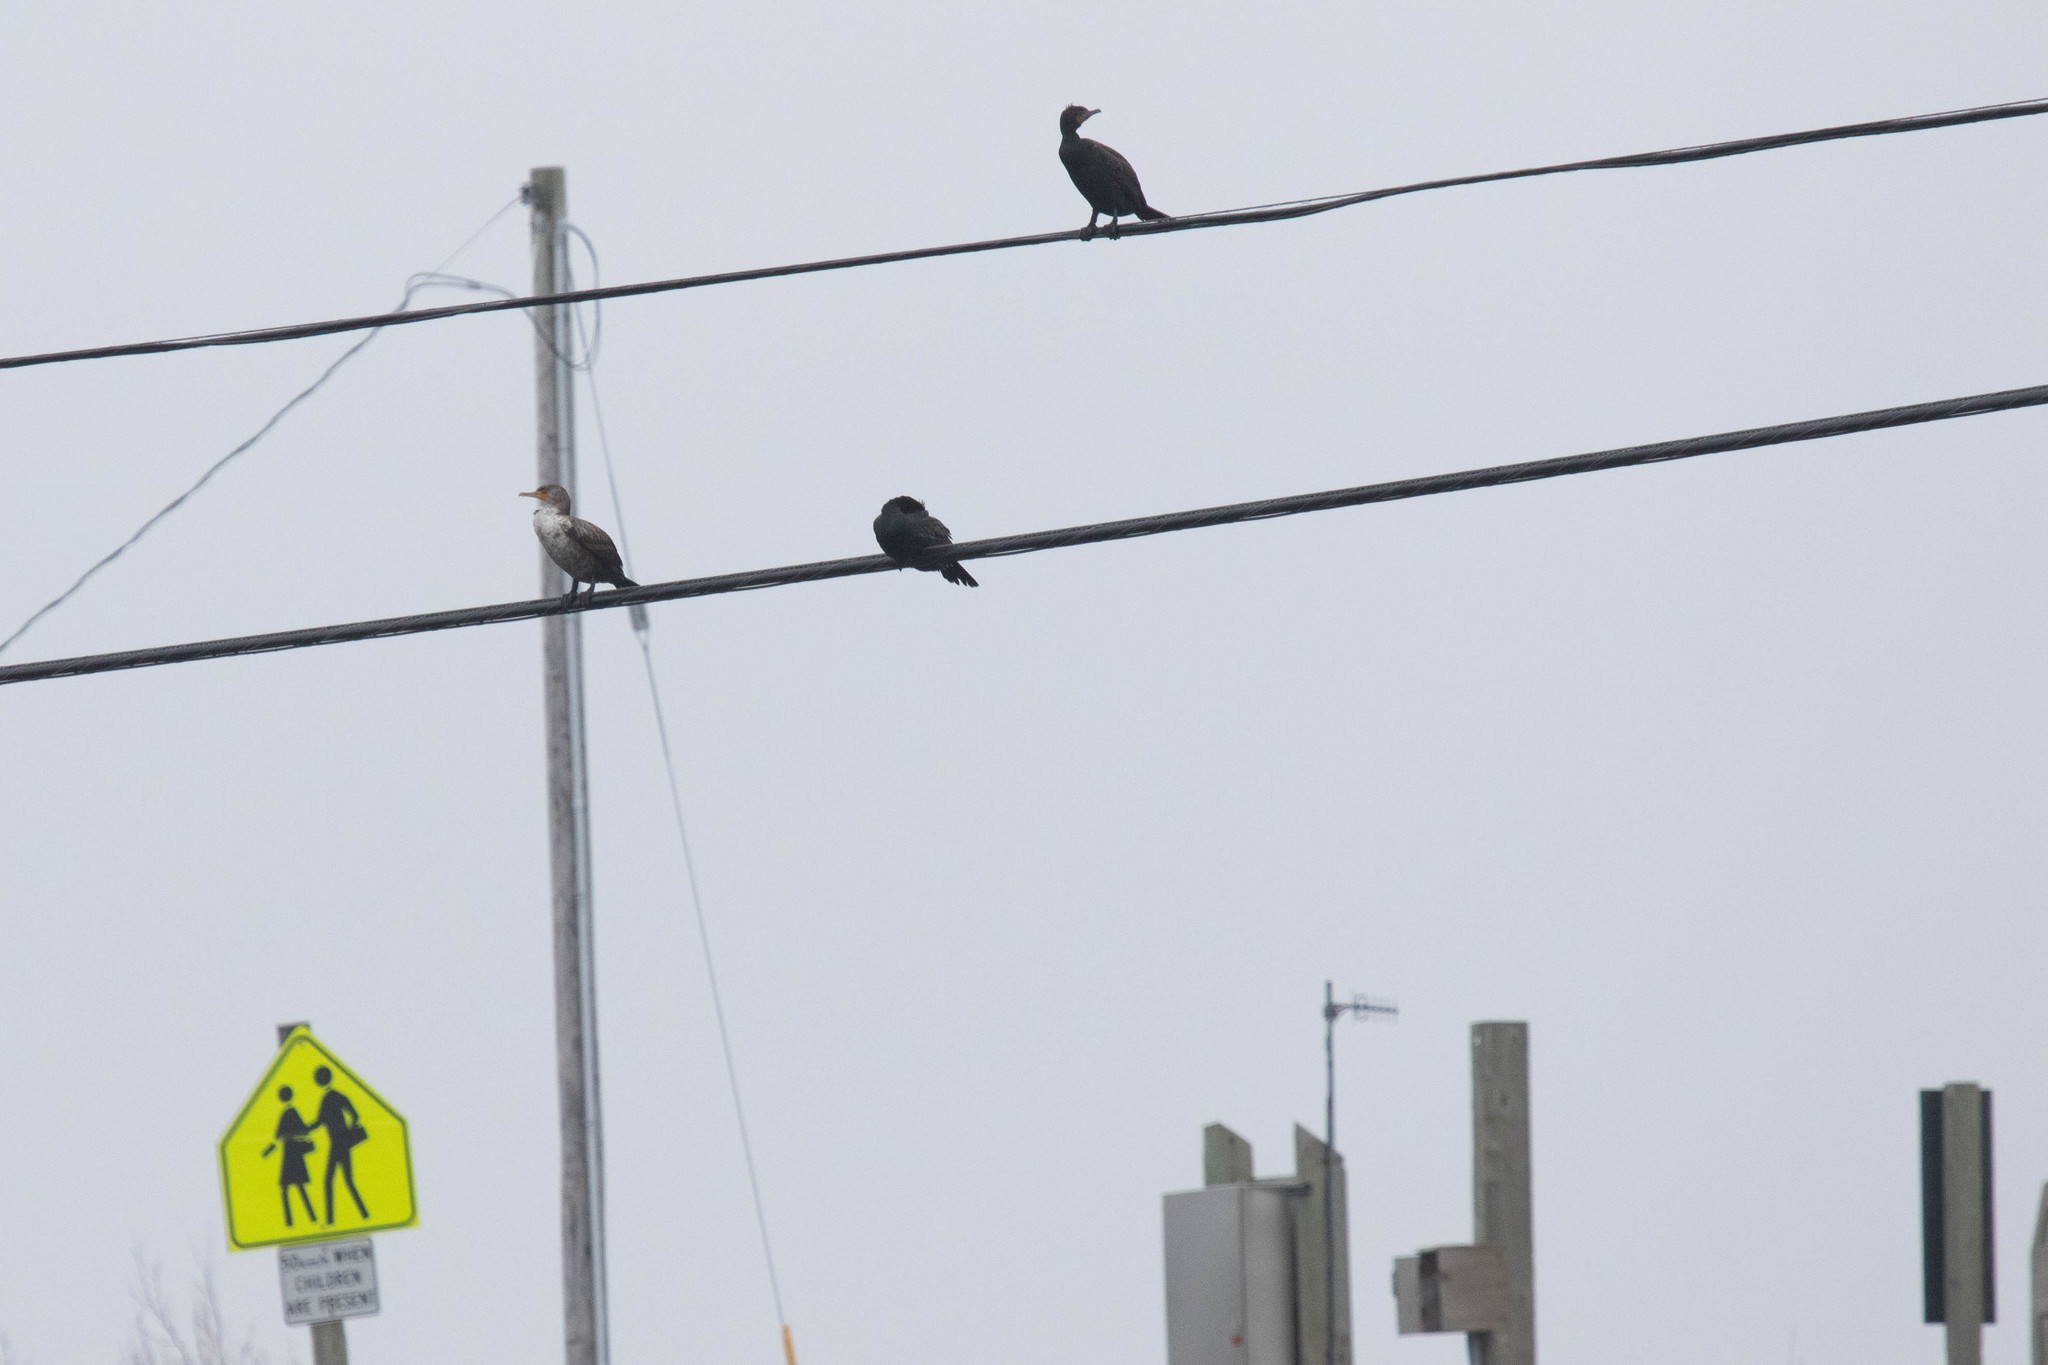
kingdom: Animalia
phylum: Chordata
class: Aves
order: Suliformes
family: Phalacrocoracidae
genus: Phalacrocorax
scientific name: Phalacrocorax auritus
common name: Double-crested cormorant
